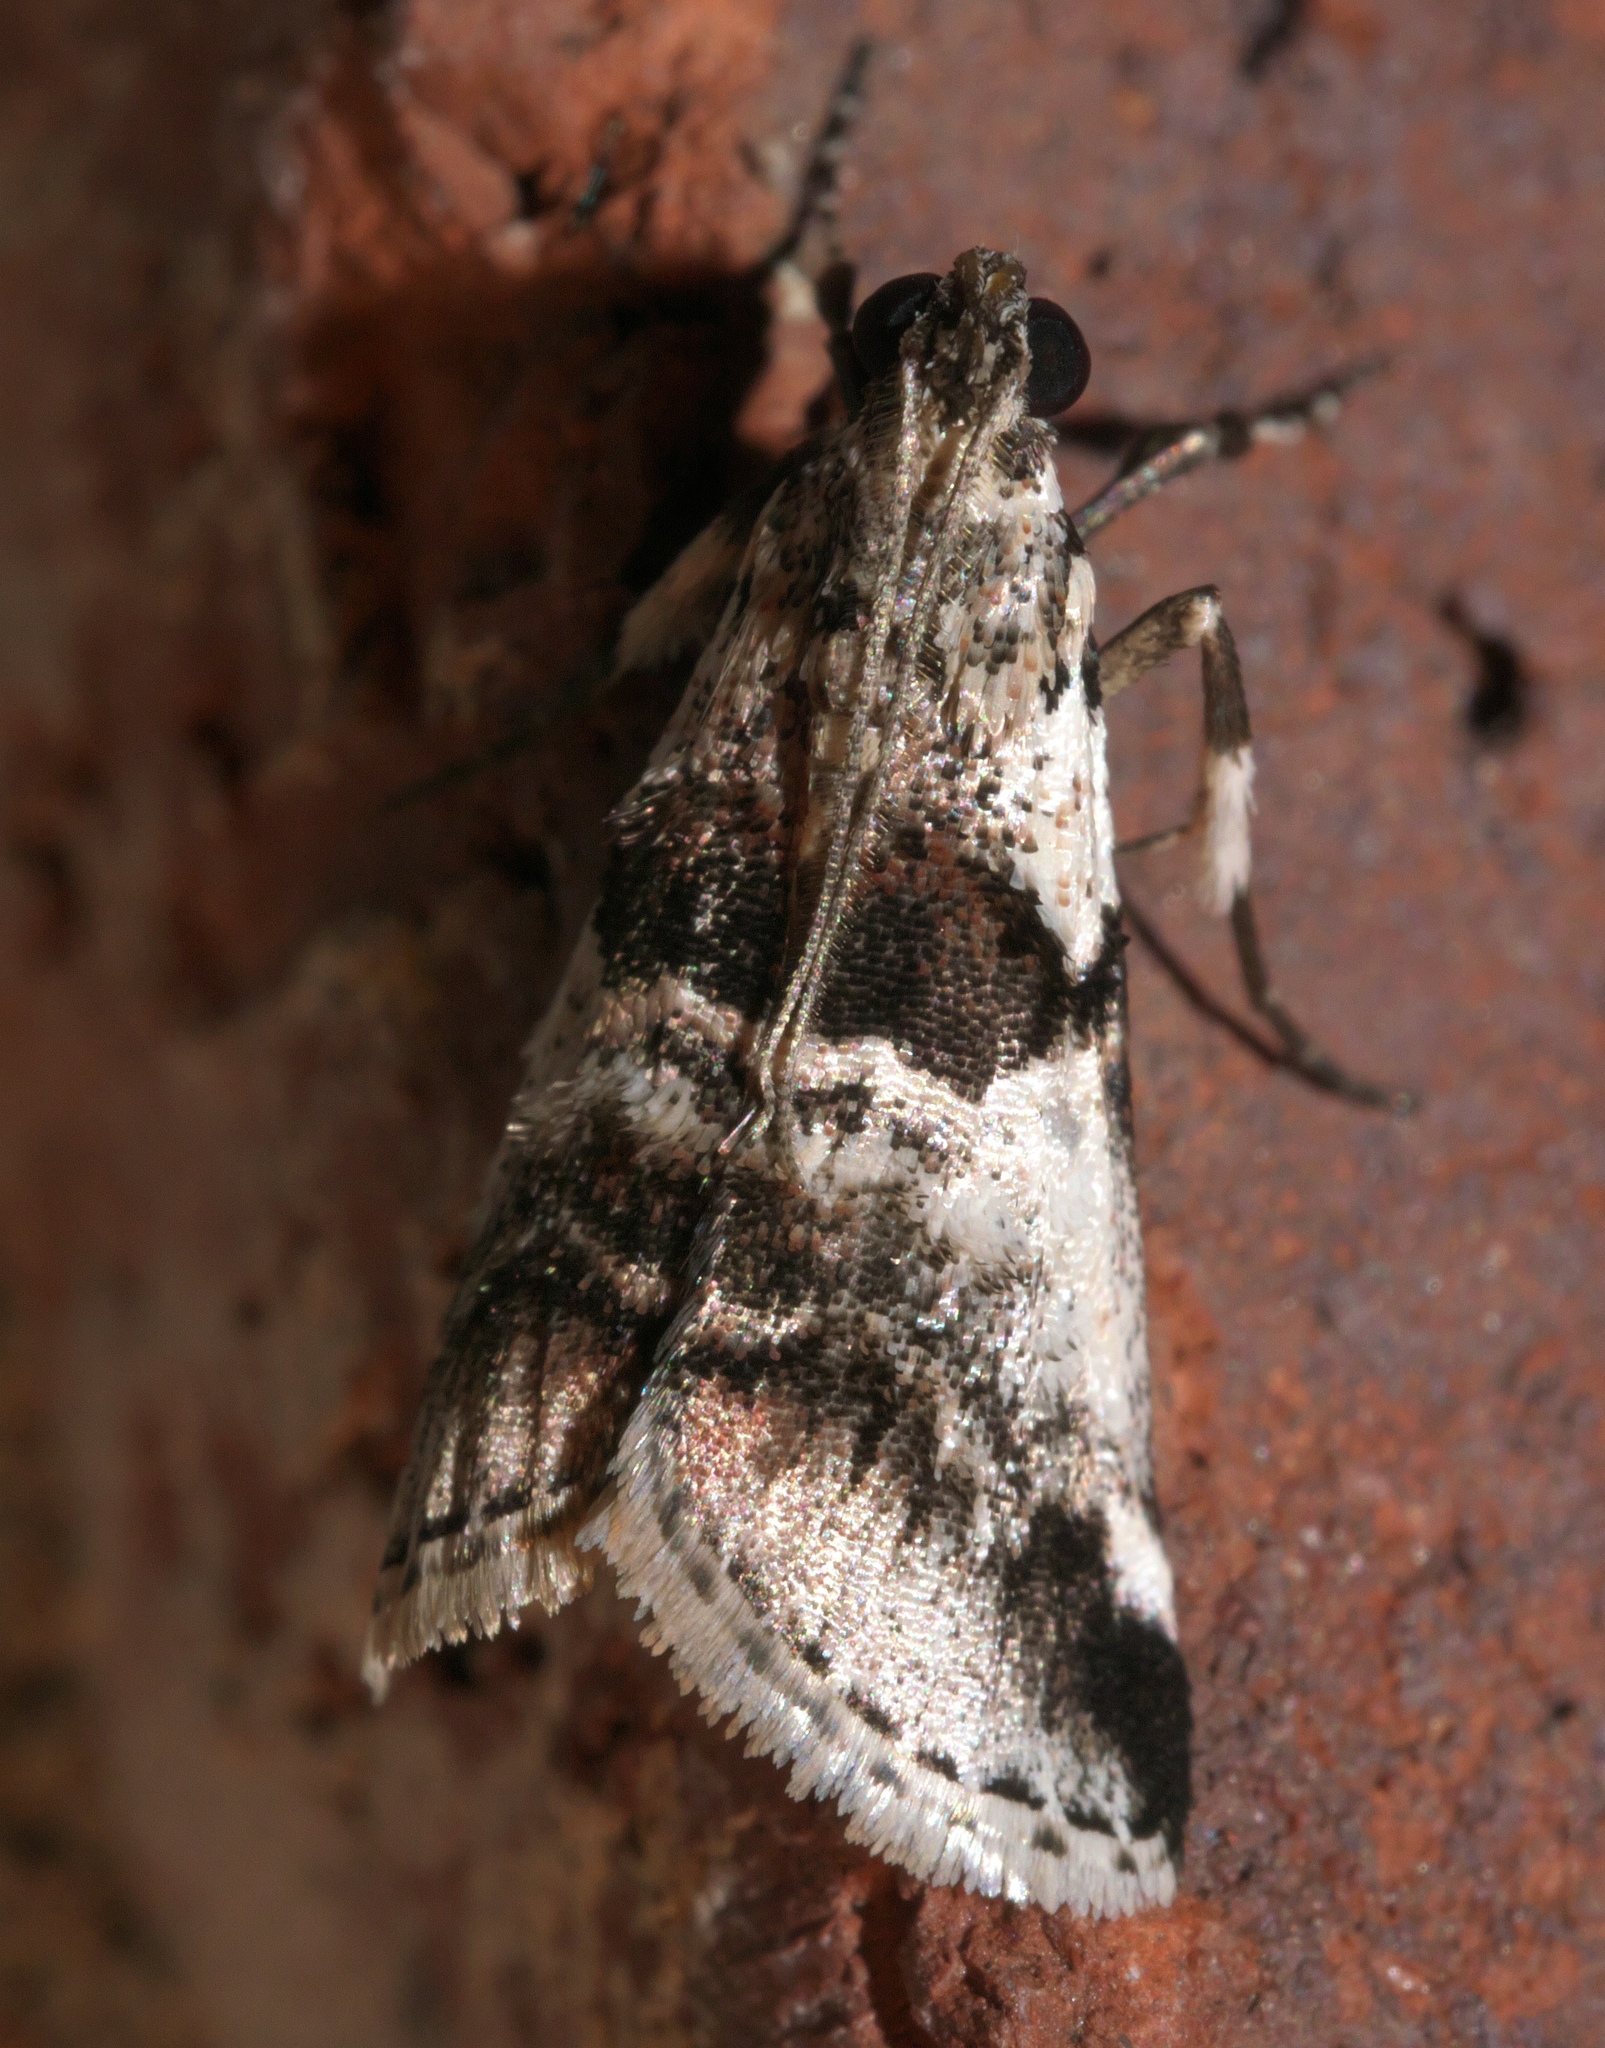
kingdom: Animalia
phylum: Arthropoda
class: Insecta
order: Lepidoptera
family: Pyralidae
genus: Tallula
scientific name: Tallula atrifascialis
